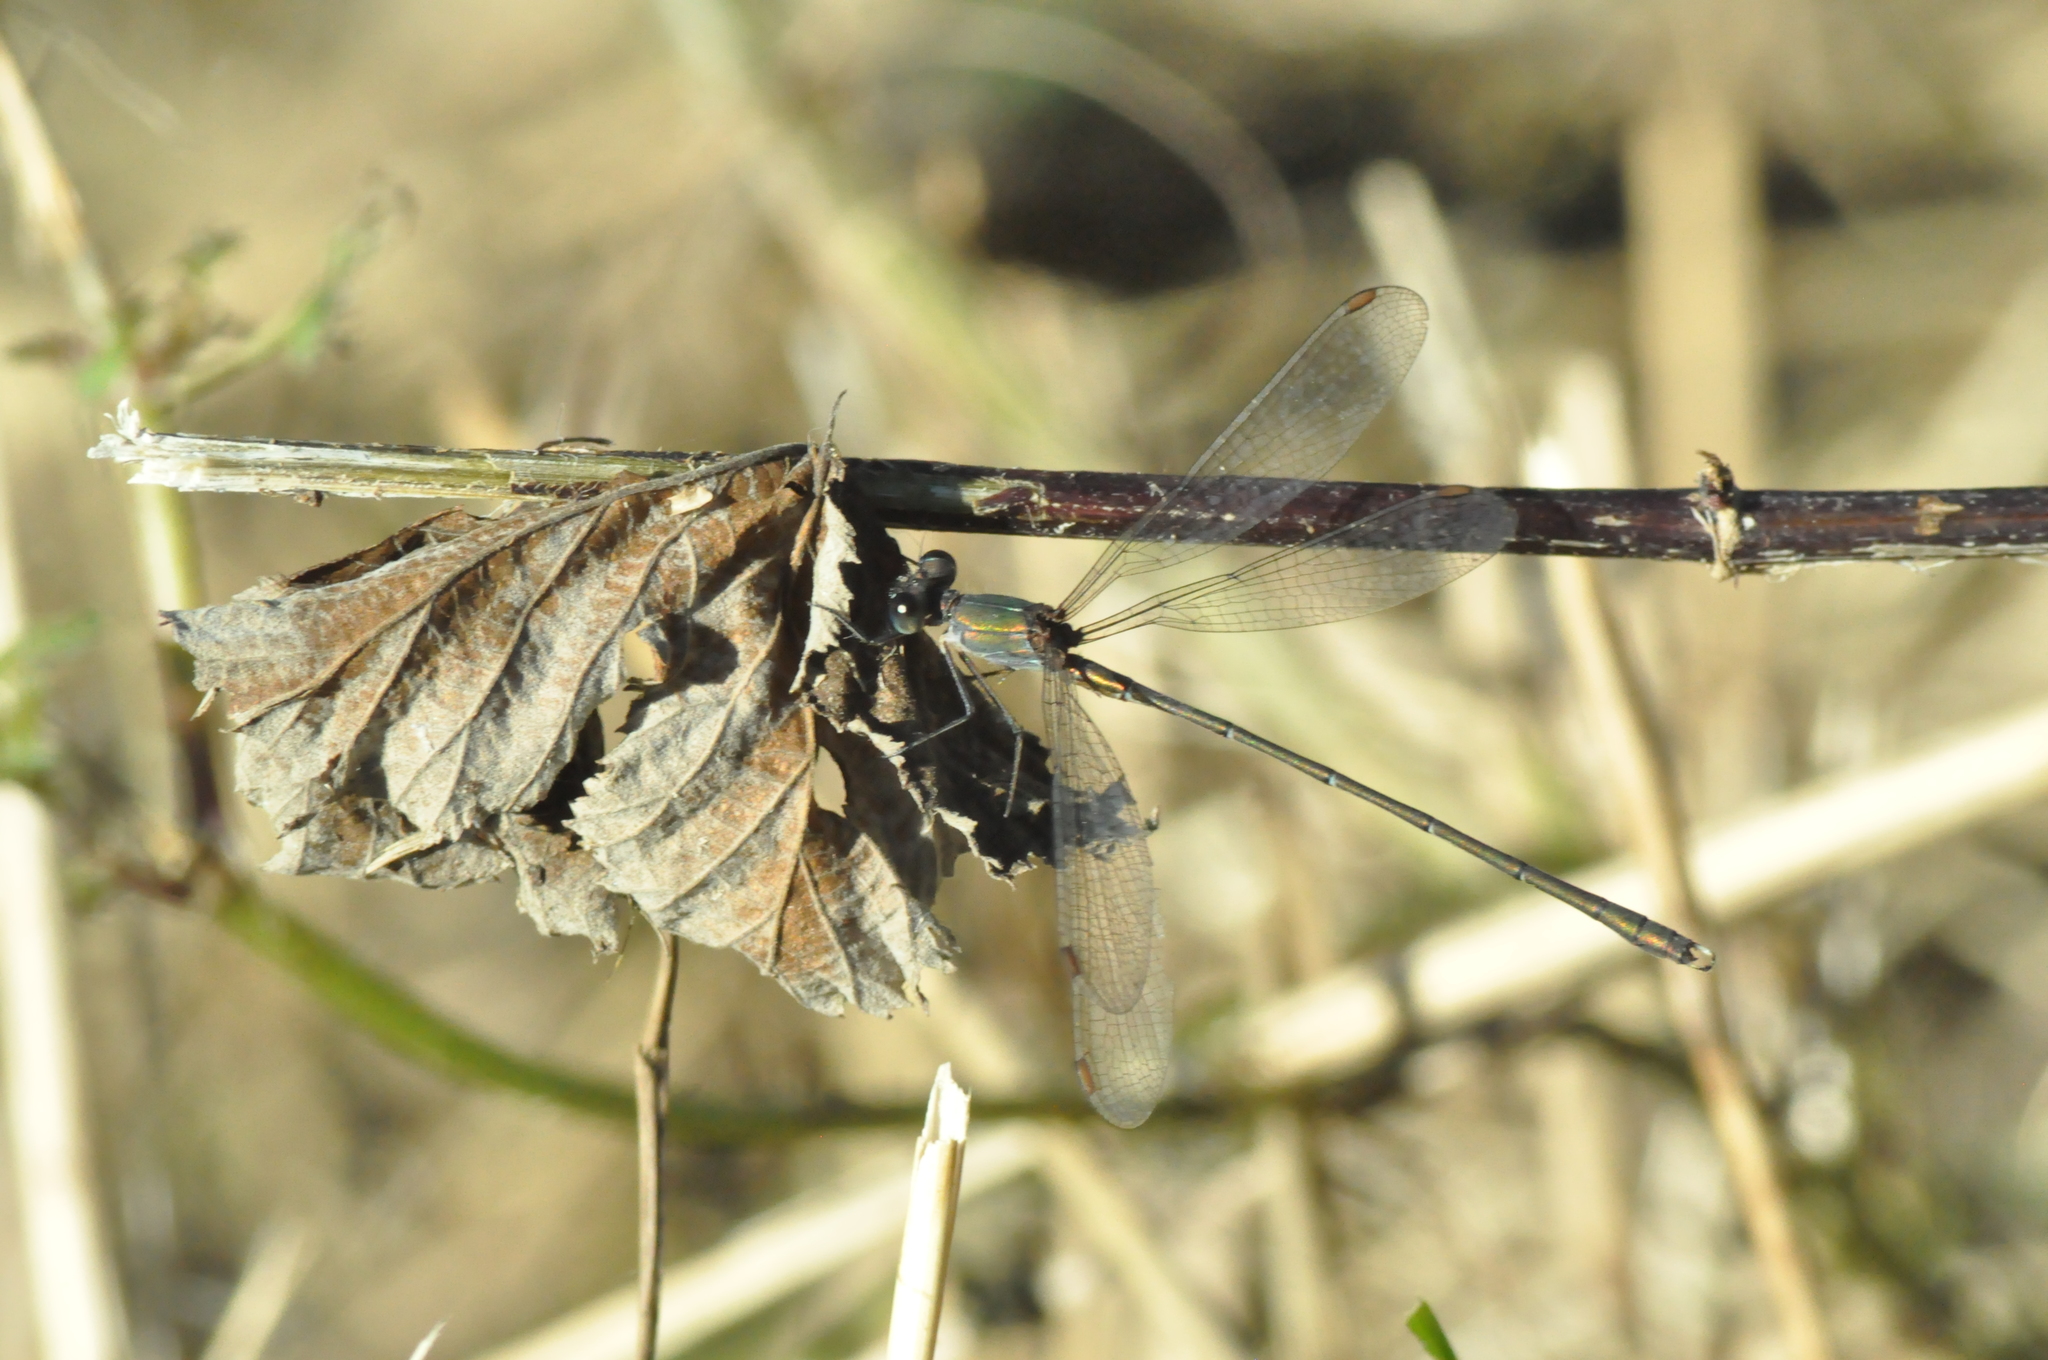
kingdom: Animalia
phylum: Arthropoda
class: Insecta
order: Odonata
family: Lestidae
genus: Chalcolestes
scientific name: Chalcolestes viridis
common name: Green emerald damselfly
